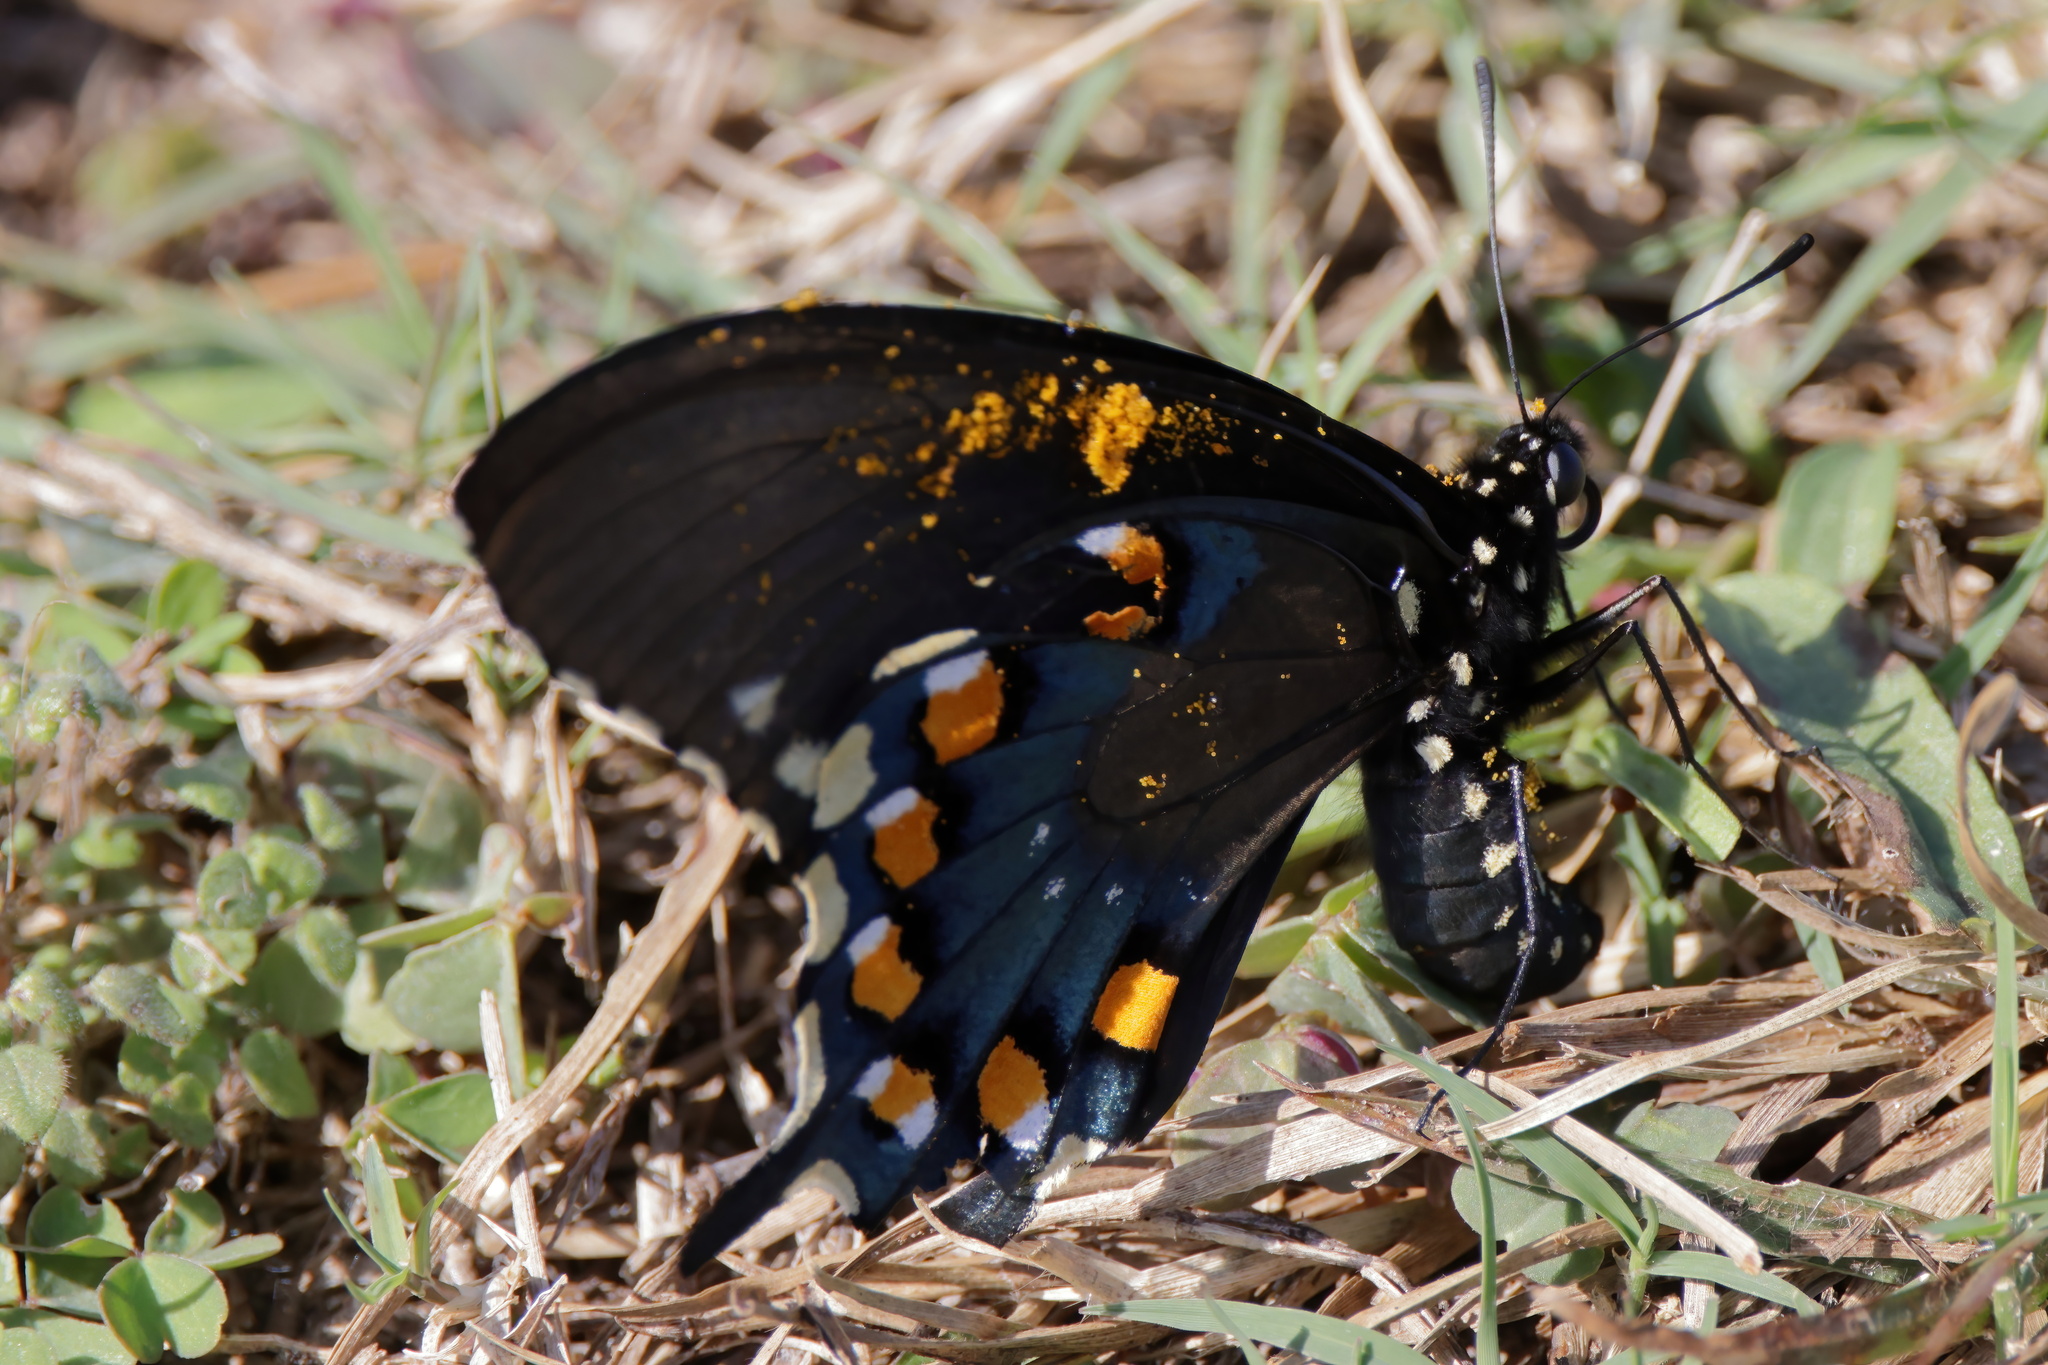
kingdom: Animalia
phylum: Arthropoda
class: Insecta
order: Lepidoptera
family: Papilionidae
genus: Battus
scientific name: Battus philenor
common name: Pipevine swallowtail
